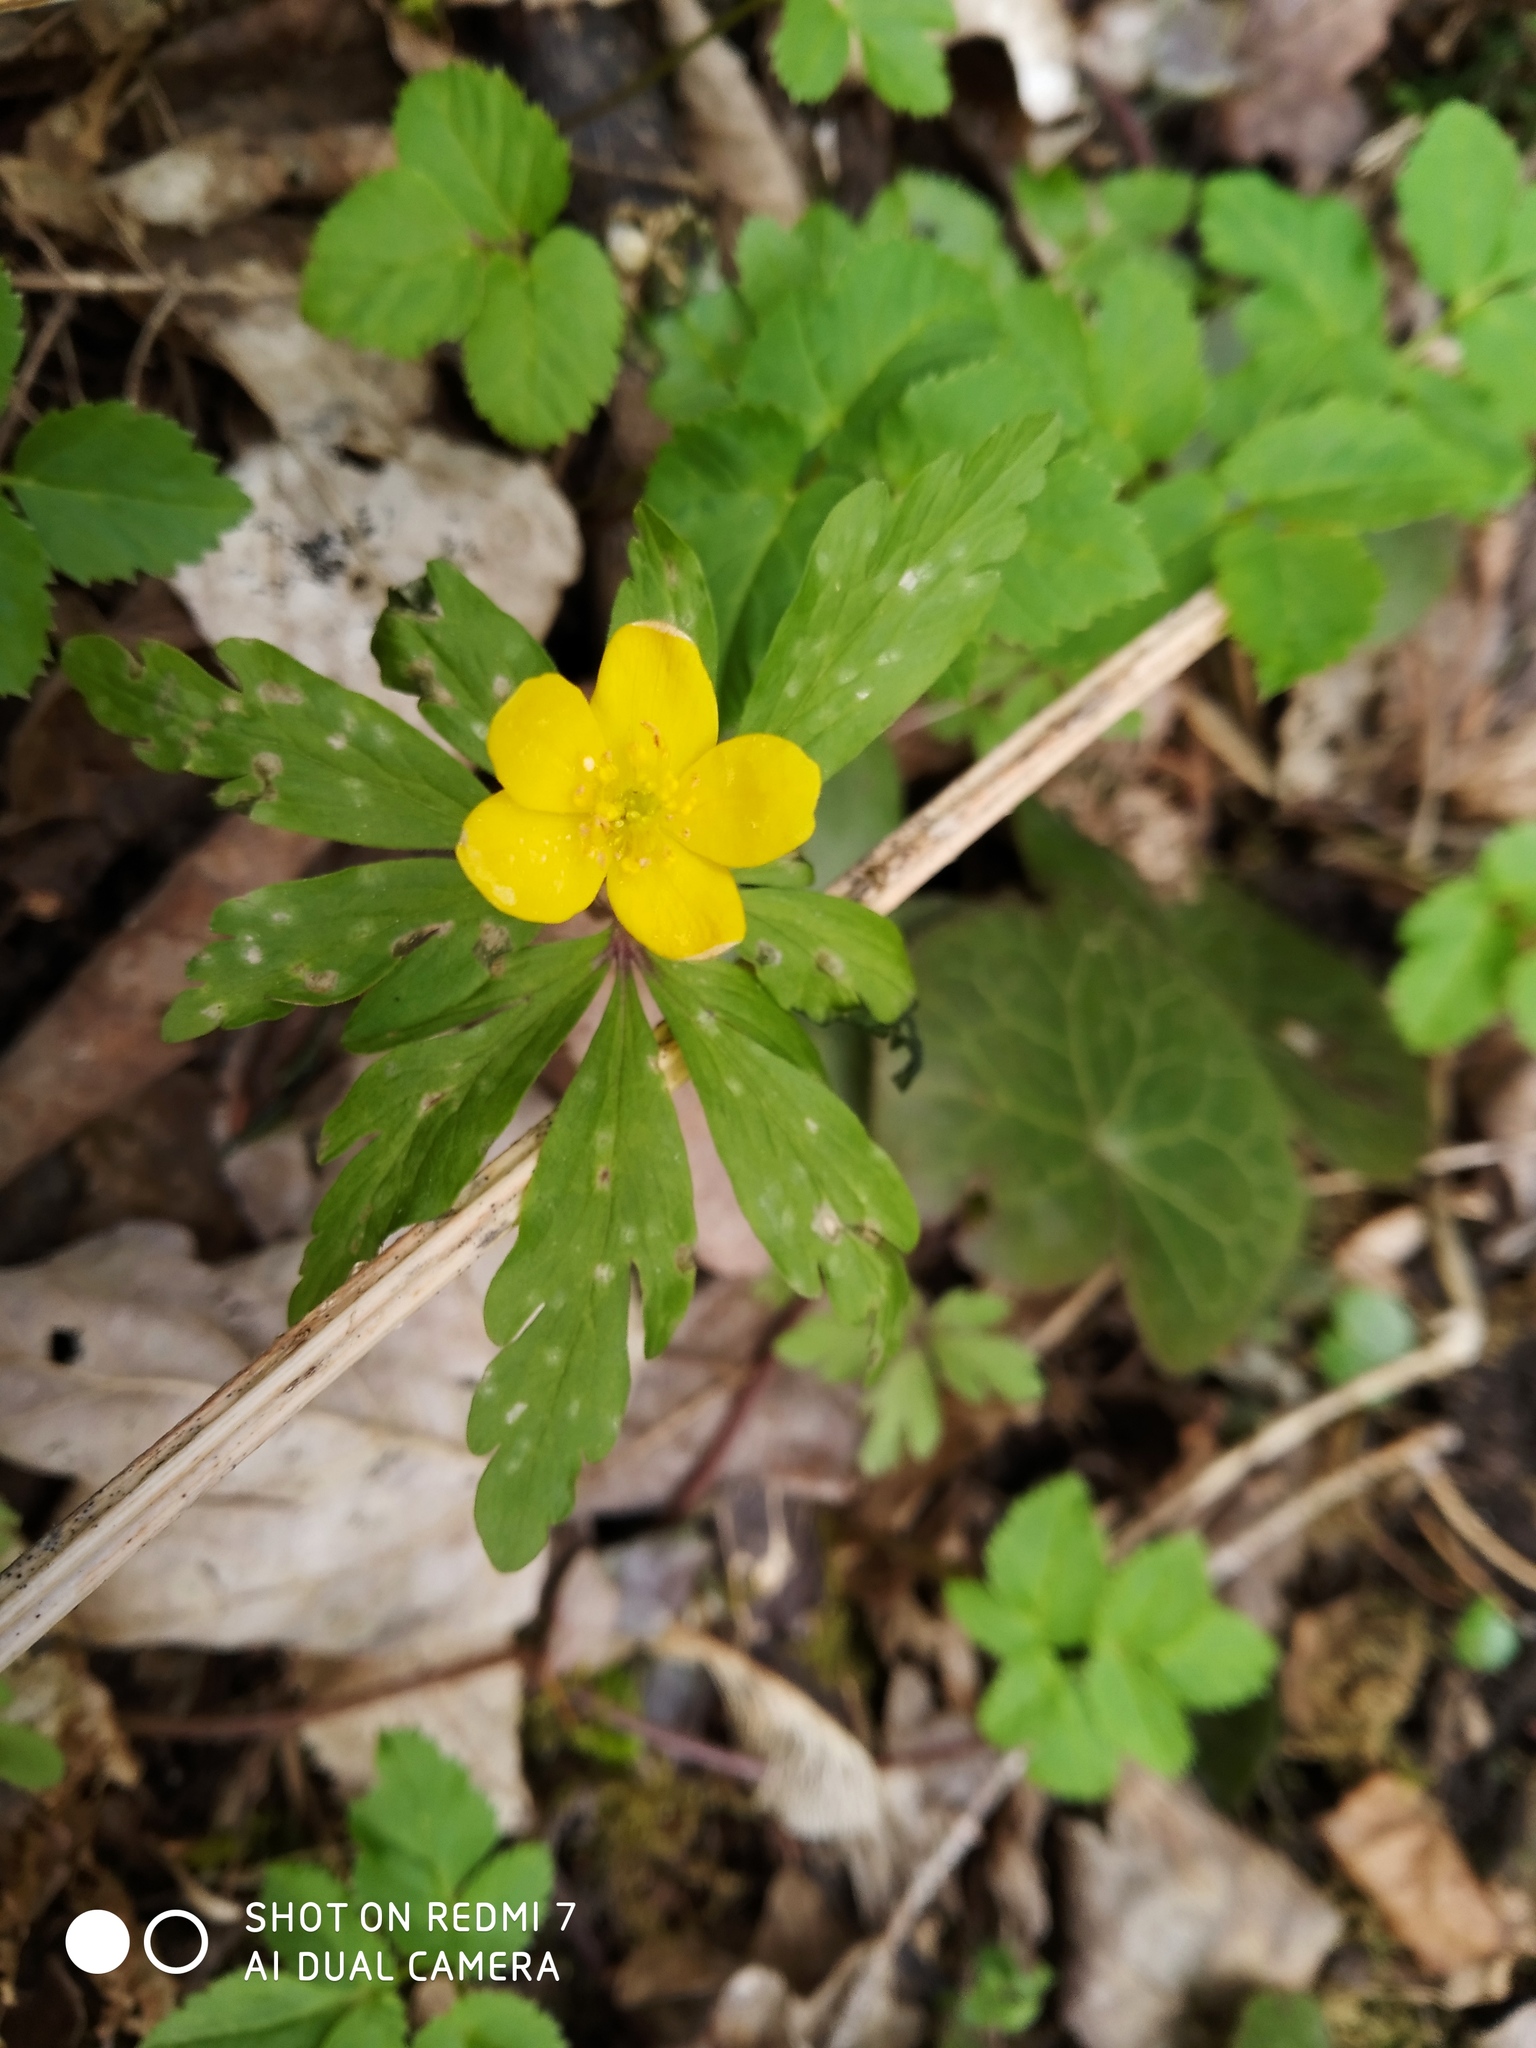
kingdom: Plantae
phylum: Tracheophyta
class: Magnoliopsida
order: Ranunculales
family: Ranunculaceae
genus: Anemone
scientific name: Anemone ranunculoides
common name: Yellow anemone
